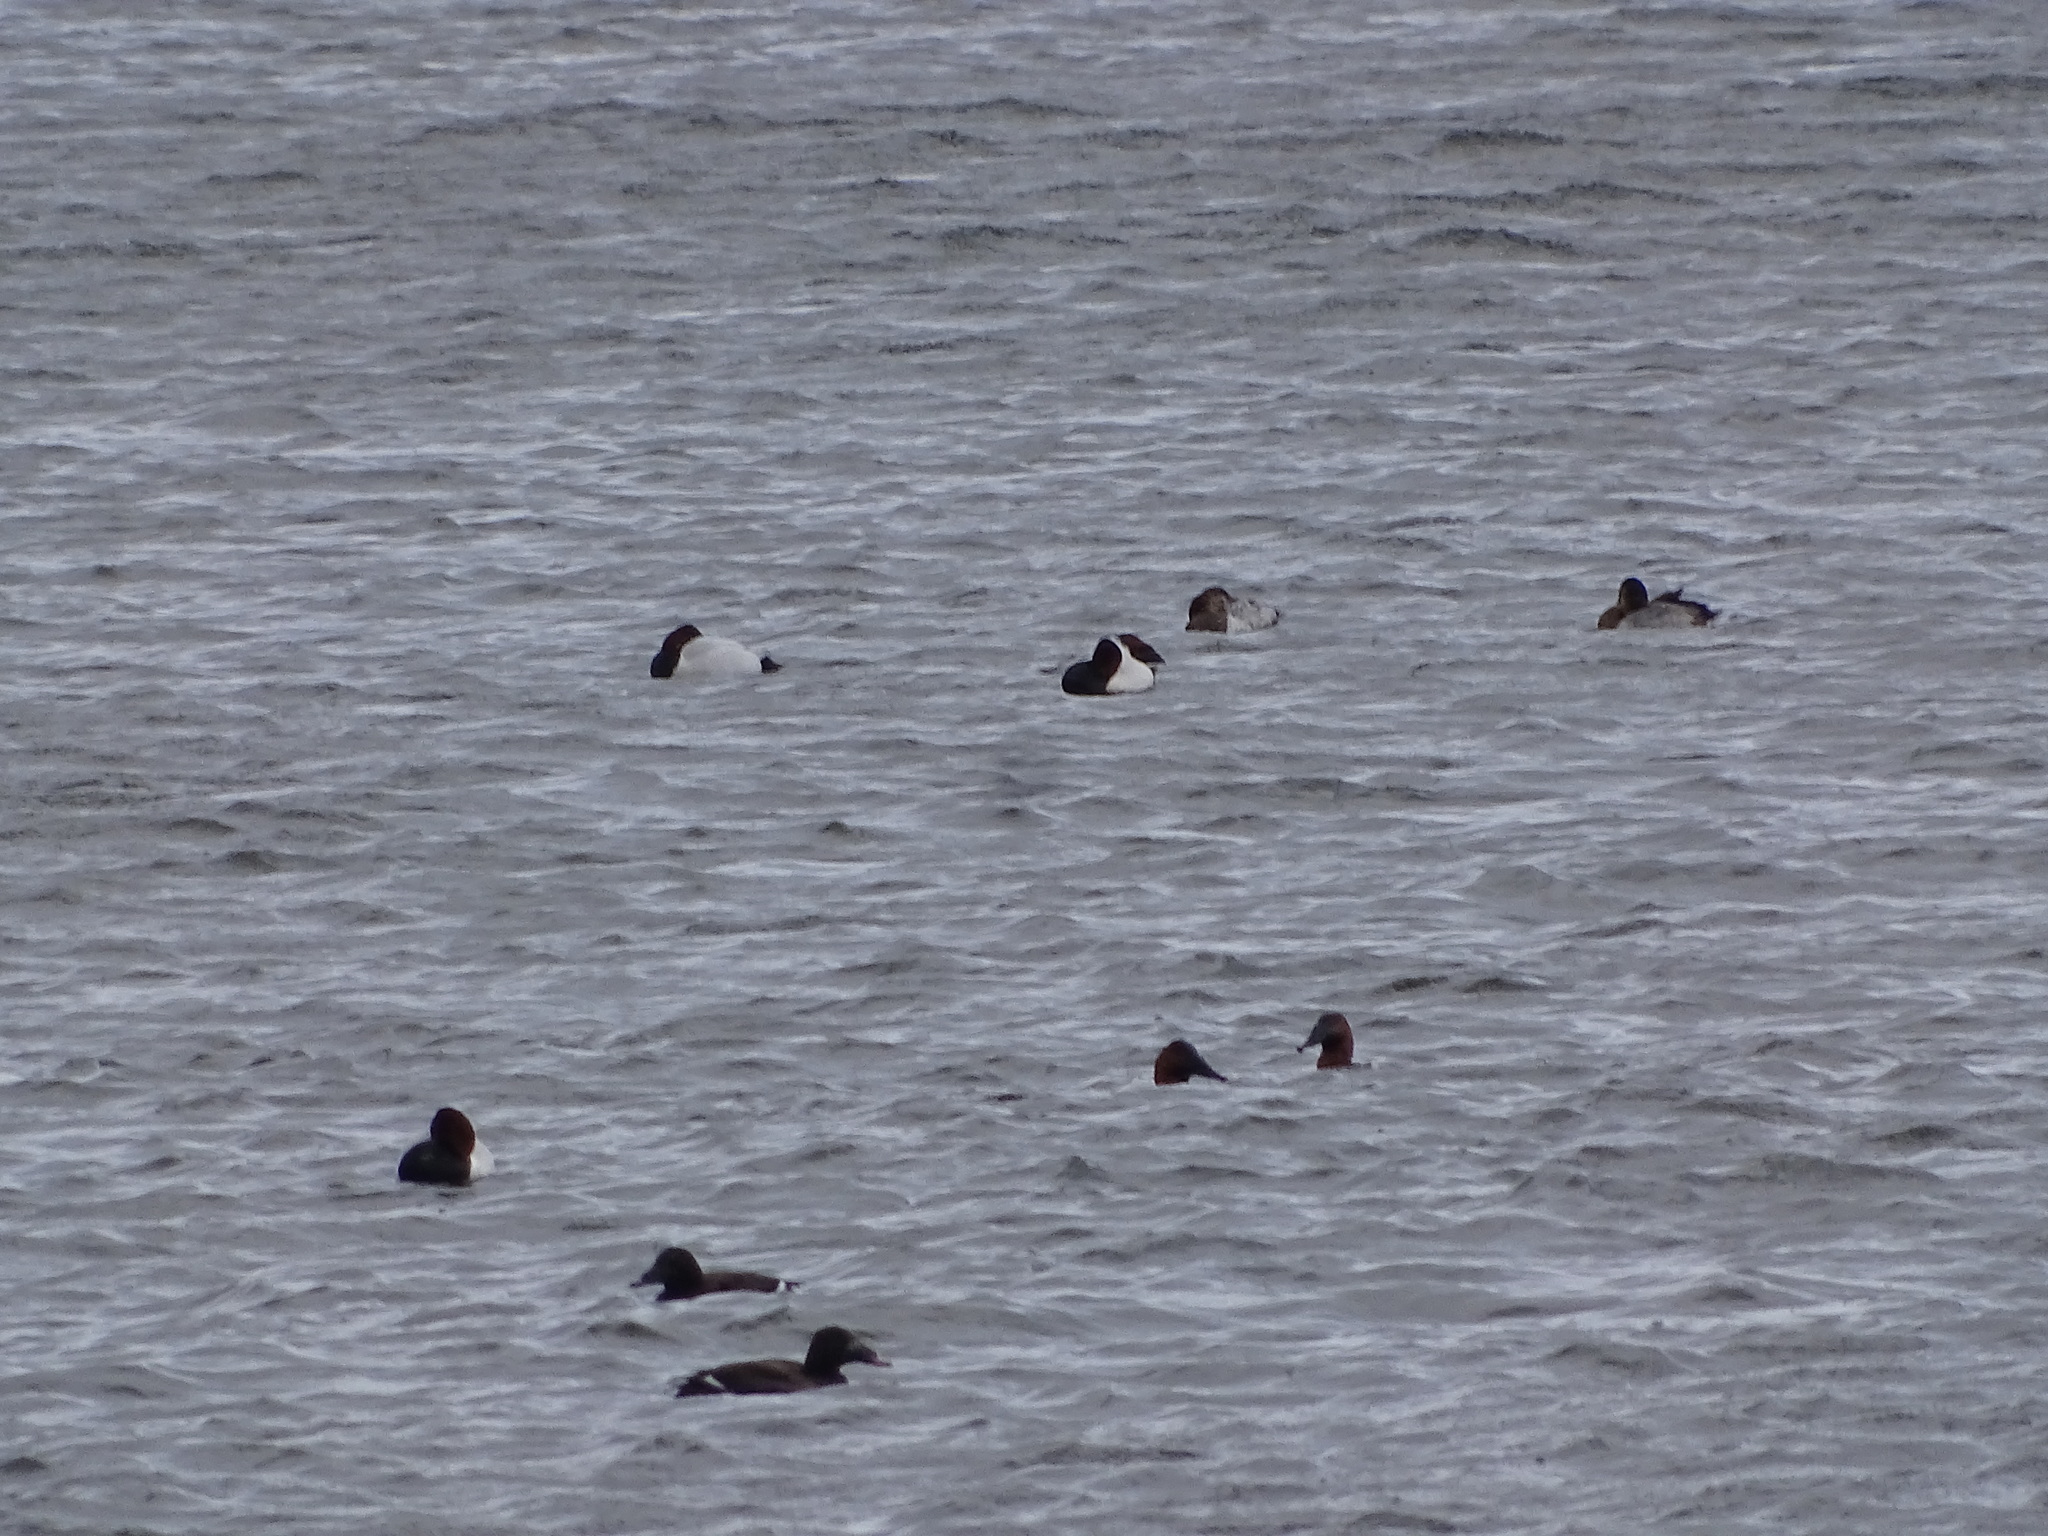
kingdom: Animalia
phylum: Chordata
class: Aves
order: Anseriformes
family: Anatidae
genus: Melanitta
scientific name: Melanitta deglandi
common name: White-winged scoter
